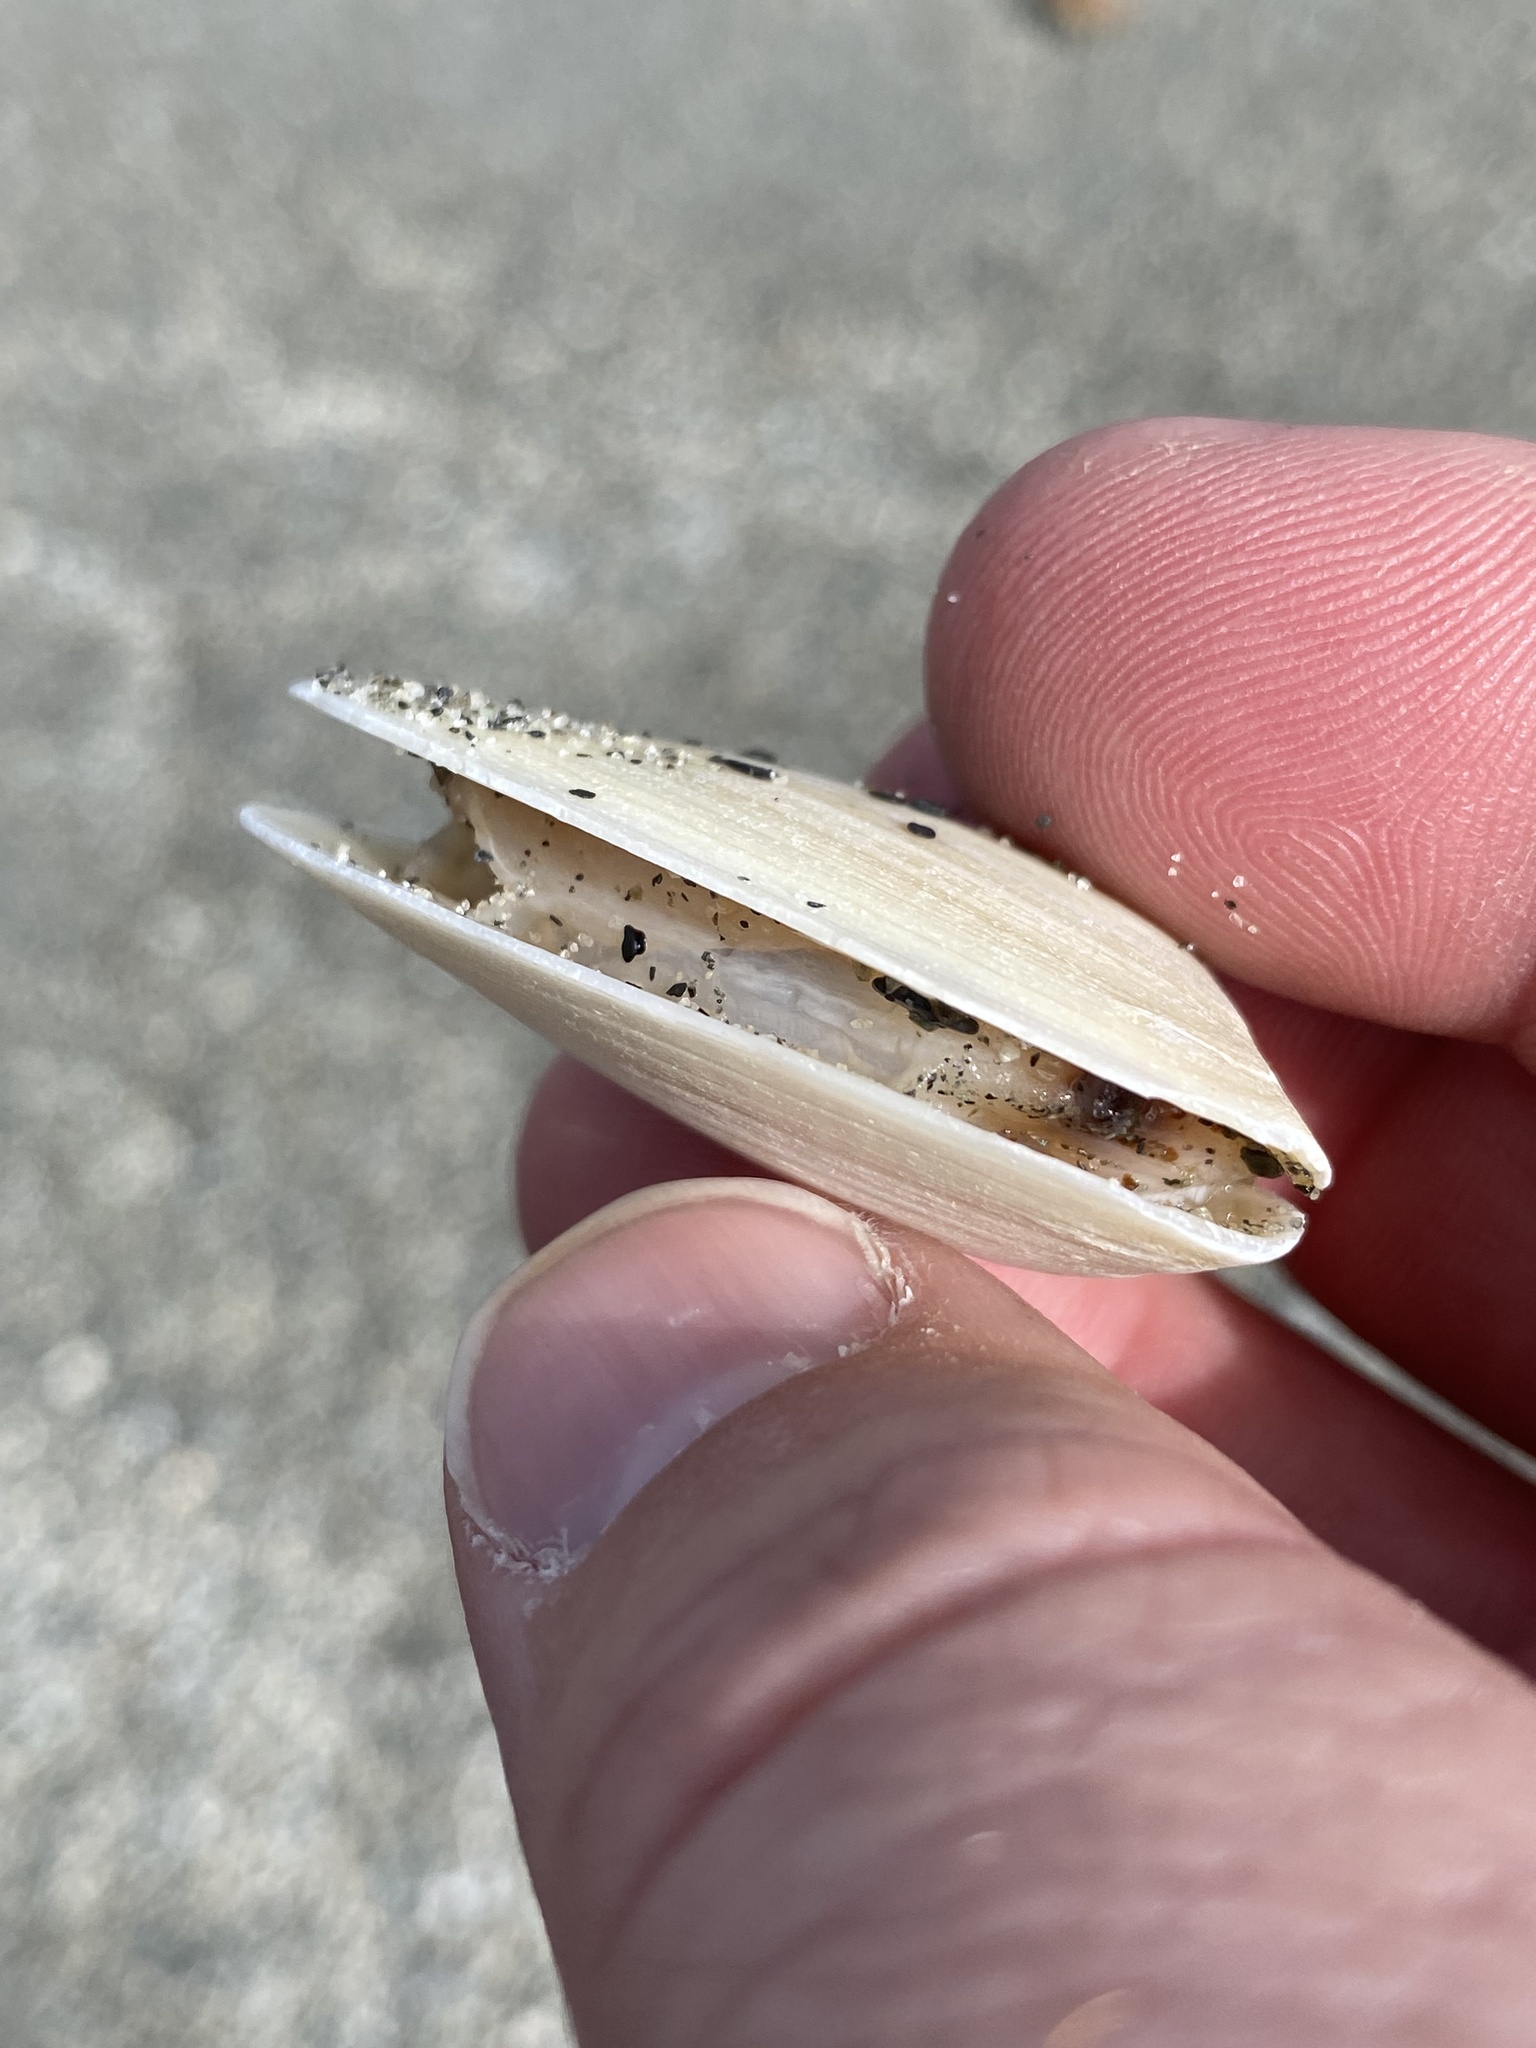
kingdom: Animalia
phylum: Mollusca
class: Bivalvia
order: Venerida
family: Mesodesmatidae
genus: Paphies
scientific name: Paphies subtriangulata
